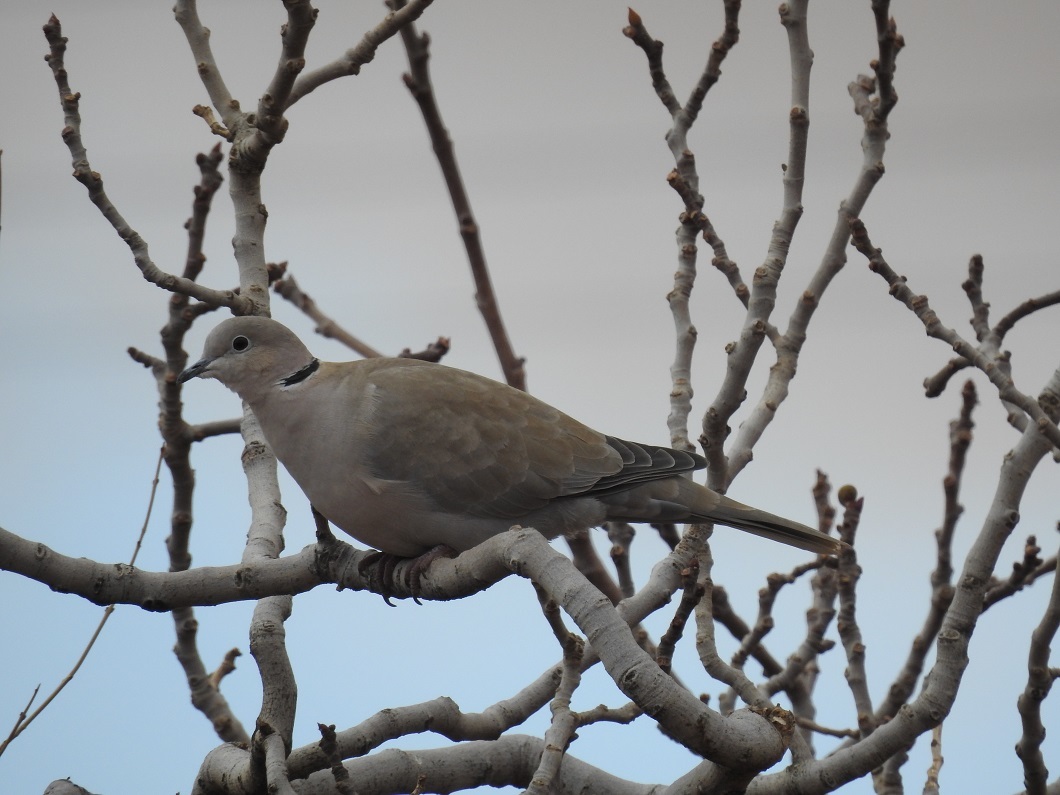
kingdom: Animalia
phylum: Chordata
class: Aves
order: Columbiformes
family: Columbidae
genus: Streptopelia
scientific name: Streptopelia decaocto
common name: Eurasian collared dove
